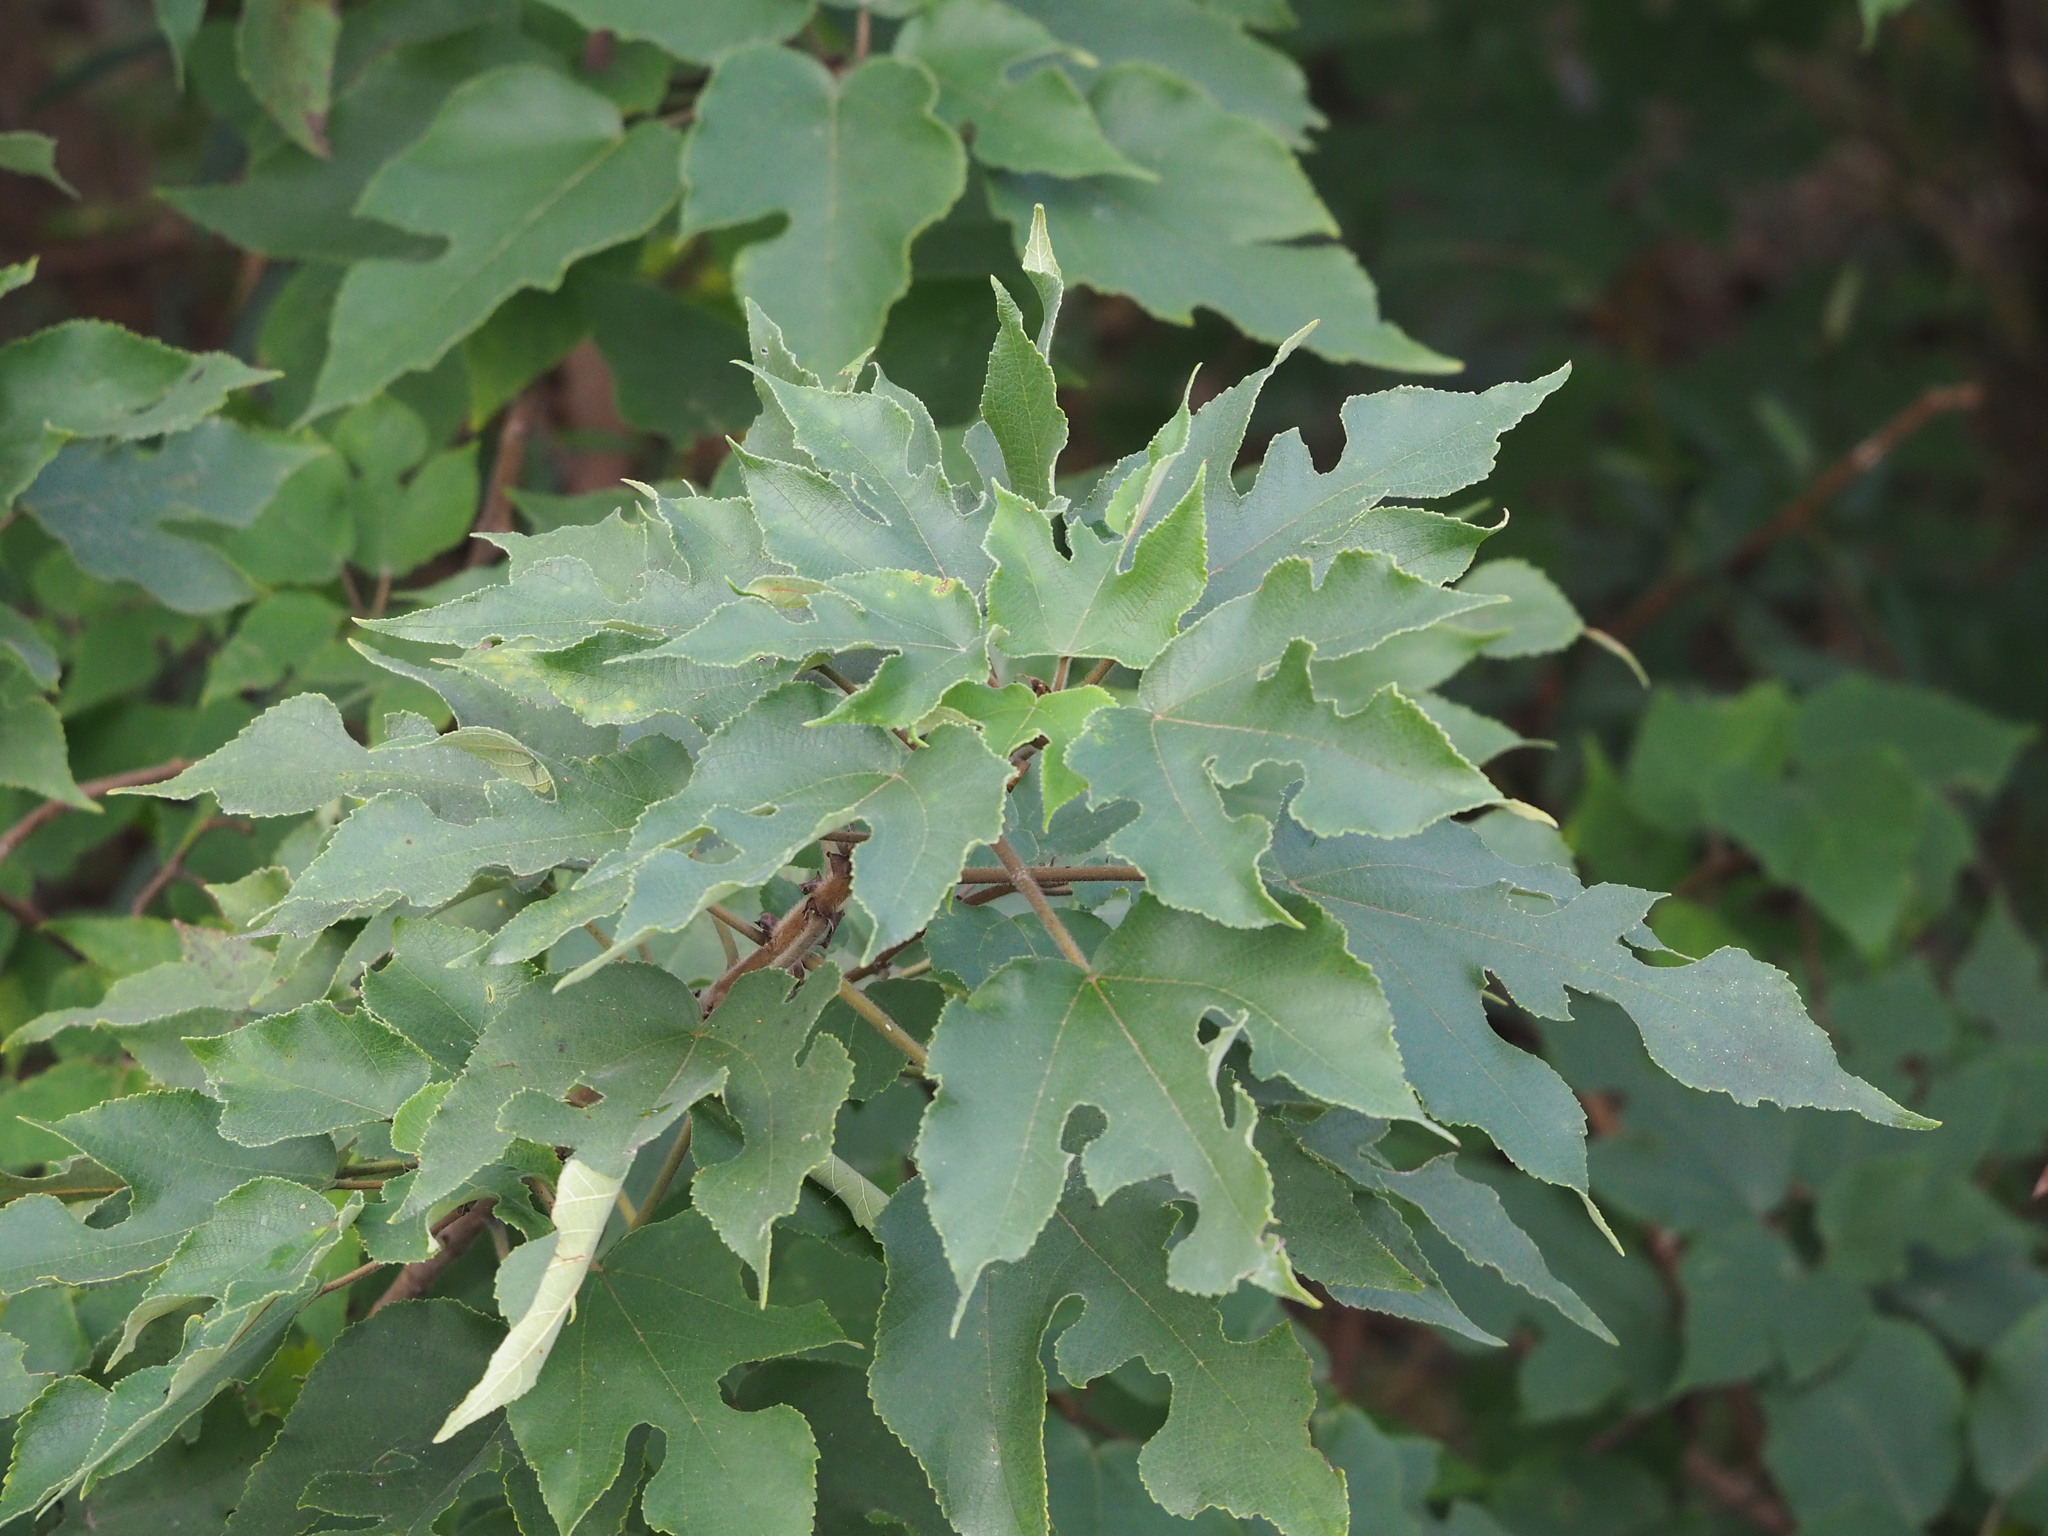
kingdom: Plantae
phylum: Tracheophyta
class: Magnoliopsida
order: Rosales
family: Moraceae
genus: Broussonetia
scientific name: Broussonetia papyrifera
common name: Paper mulberry
